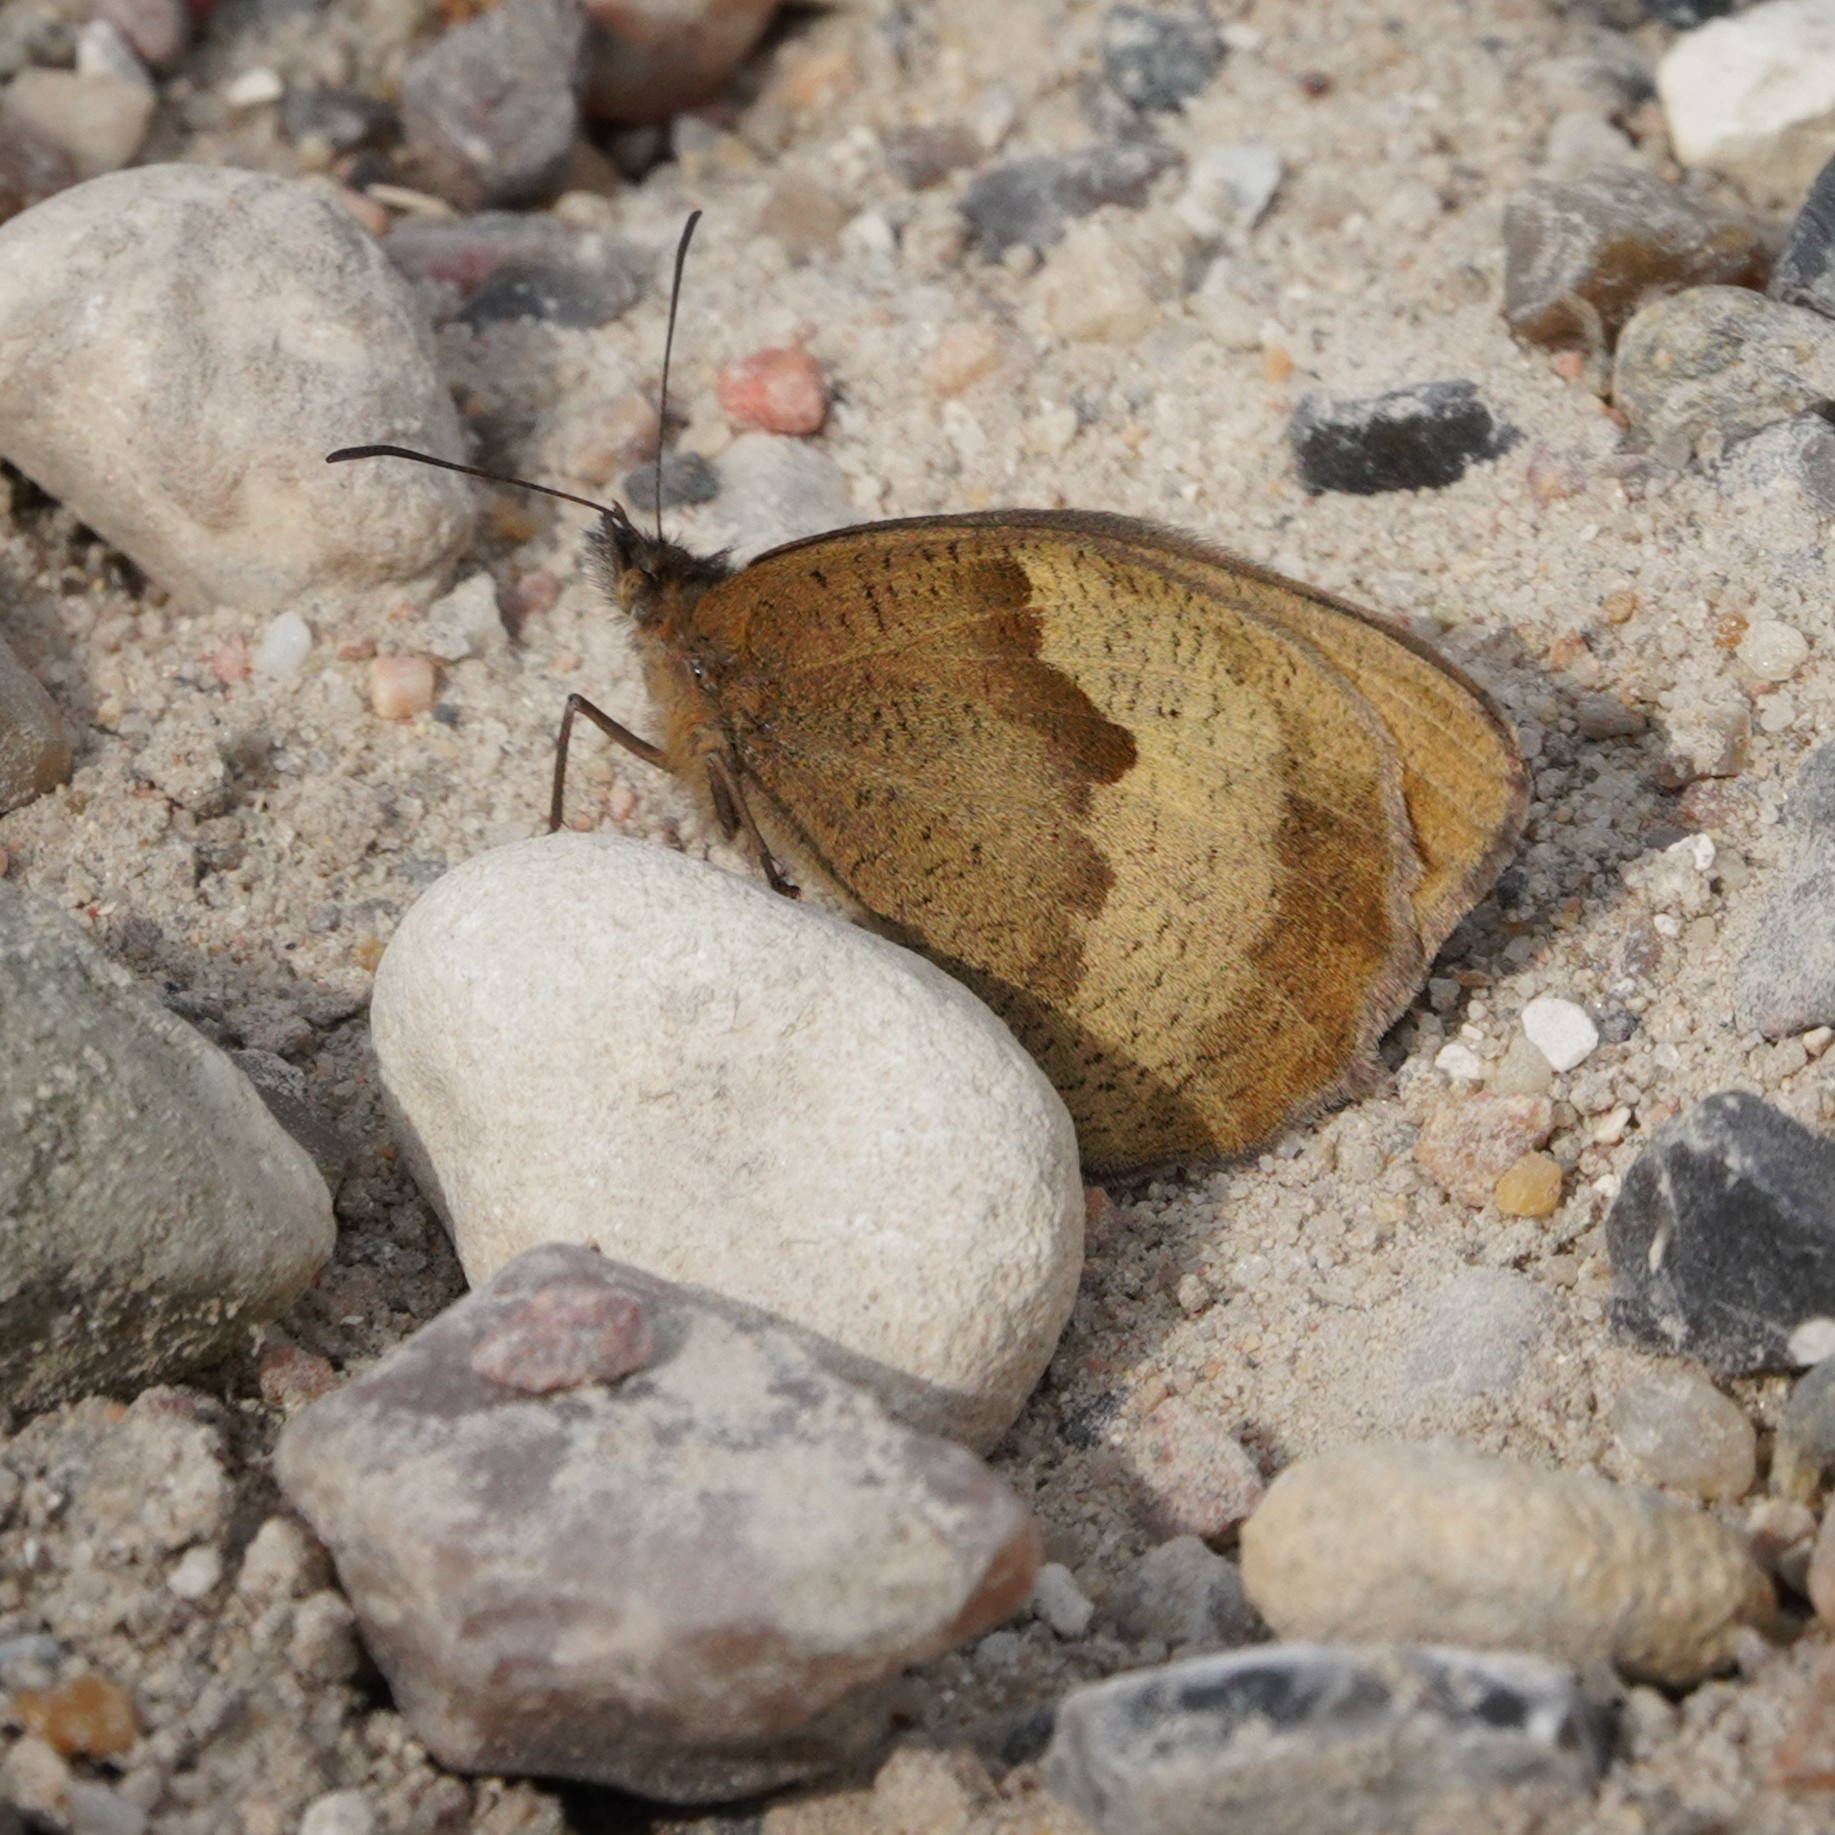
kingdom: Animalia
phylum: Arthropoda
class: Insecta
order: Lepidoptera
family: Nymphalidae
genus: Maniola
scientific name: Maniola jurtina
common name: Meadow brown
